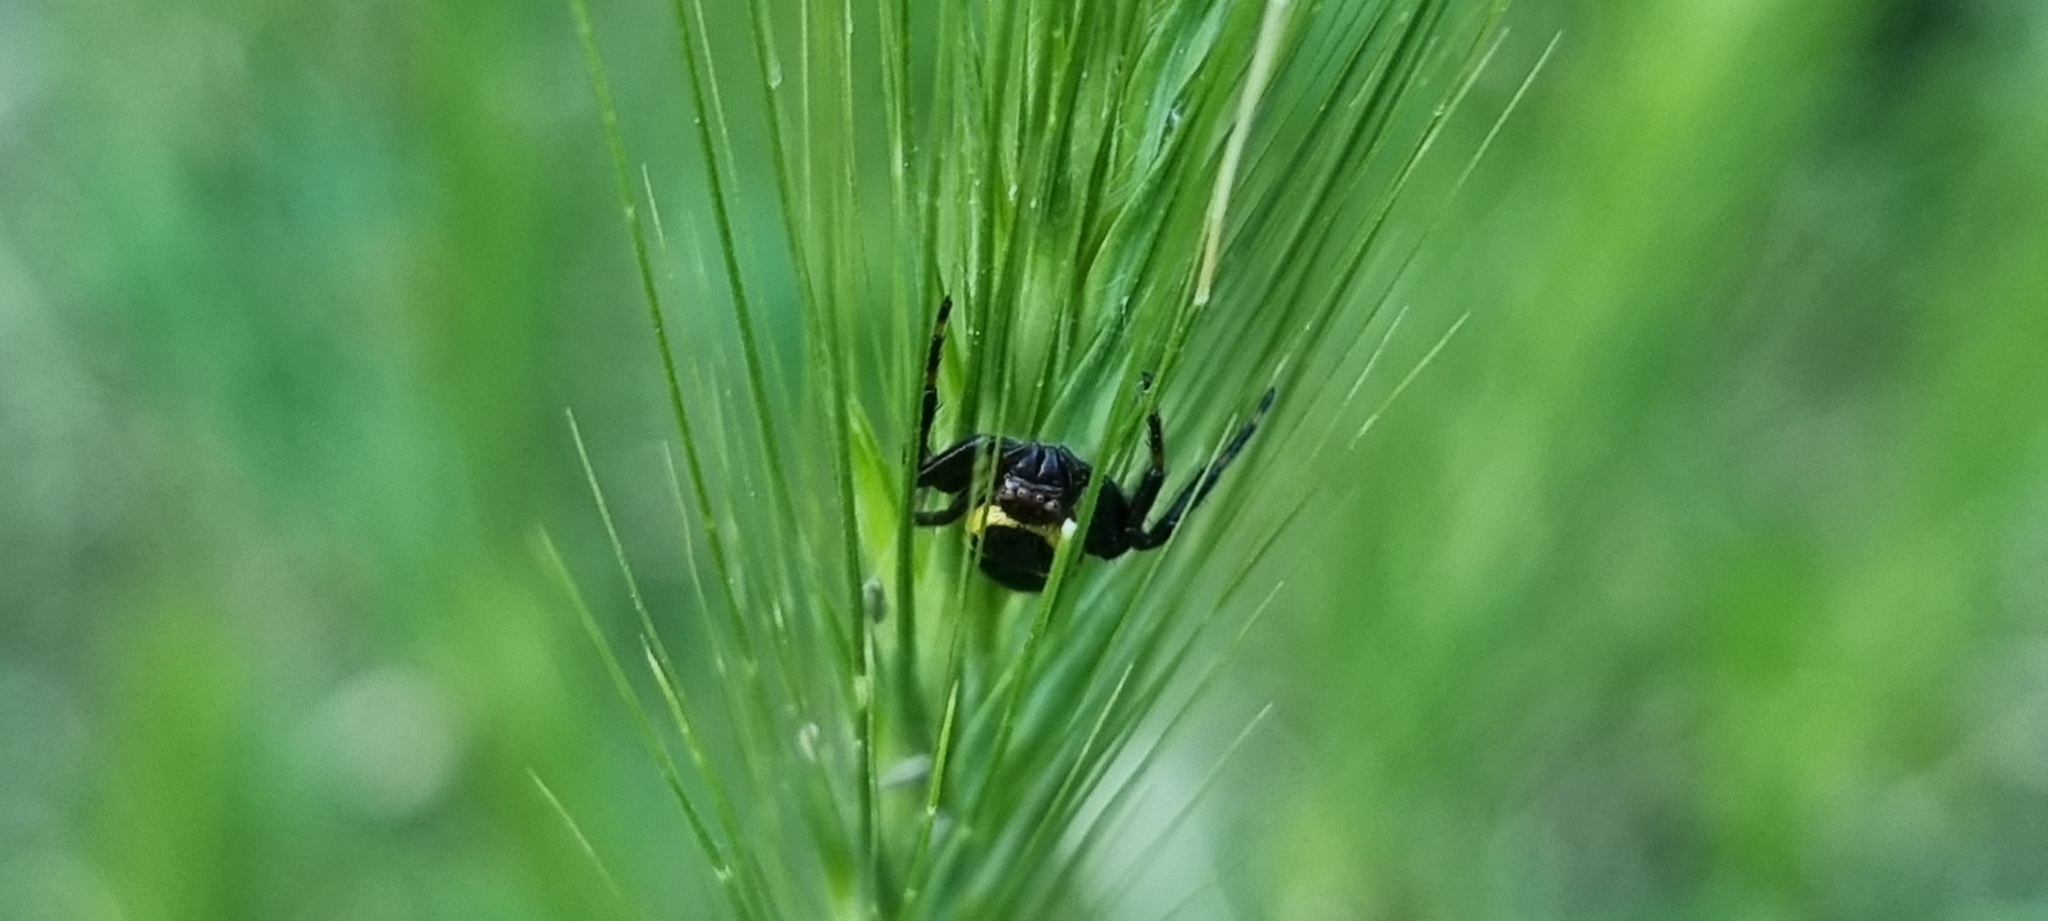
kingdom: Animalia
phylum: Arthropoda
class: Arachnida
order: Araneae
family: Thomisidae
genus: Synema
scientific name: Synema globosum
